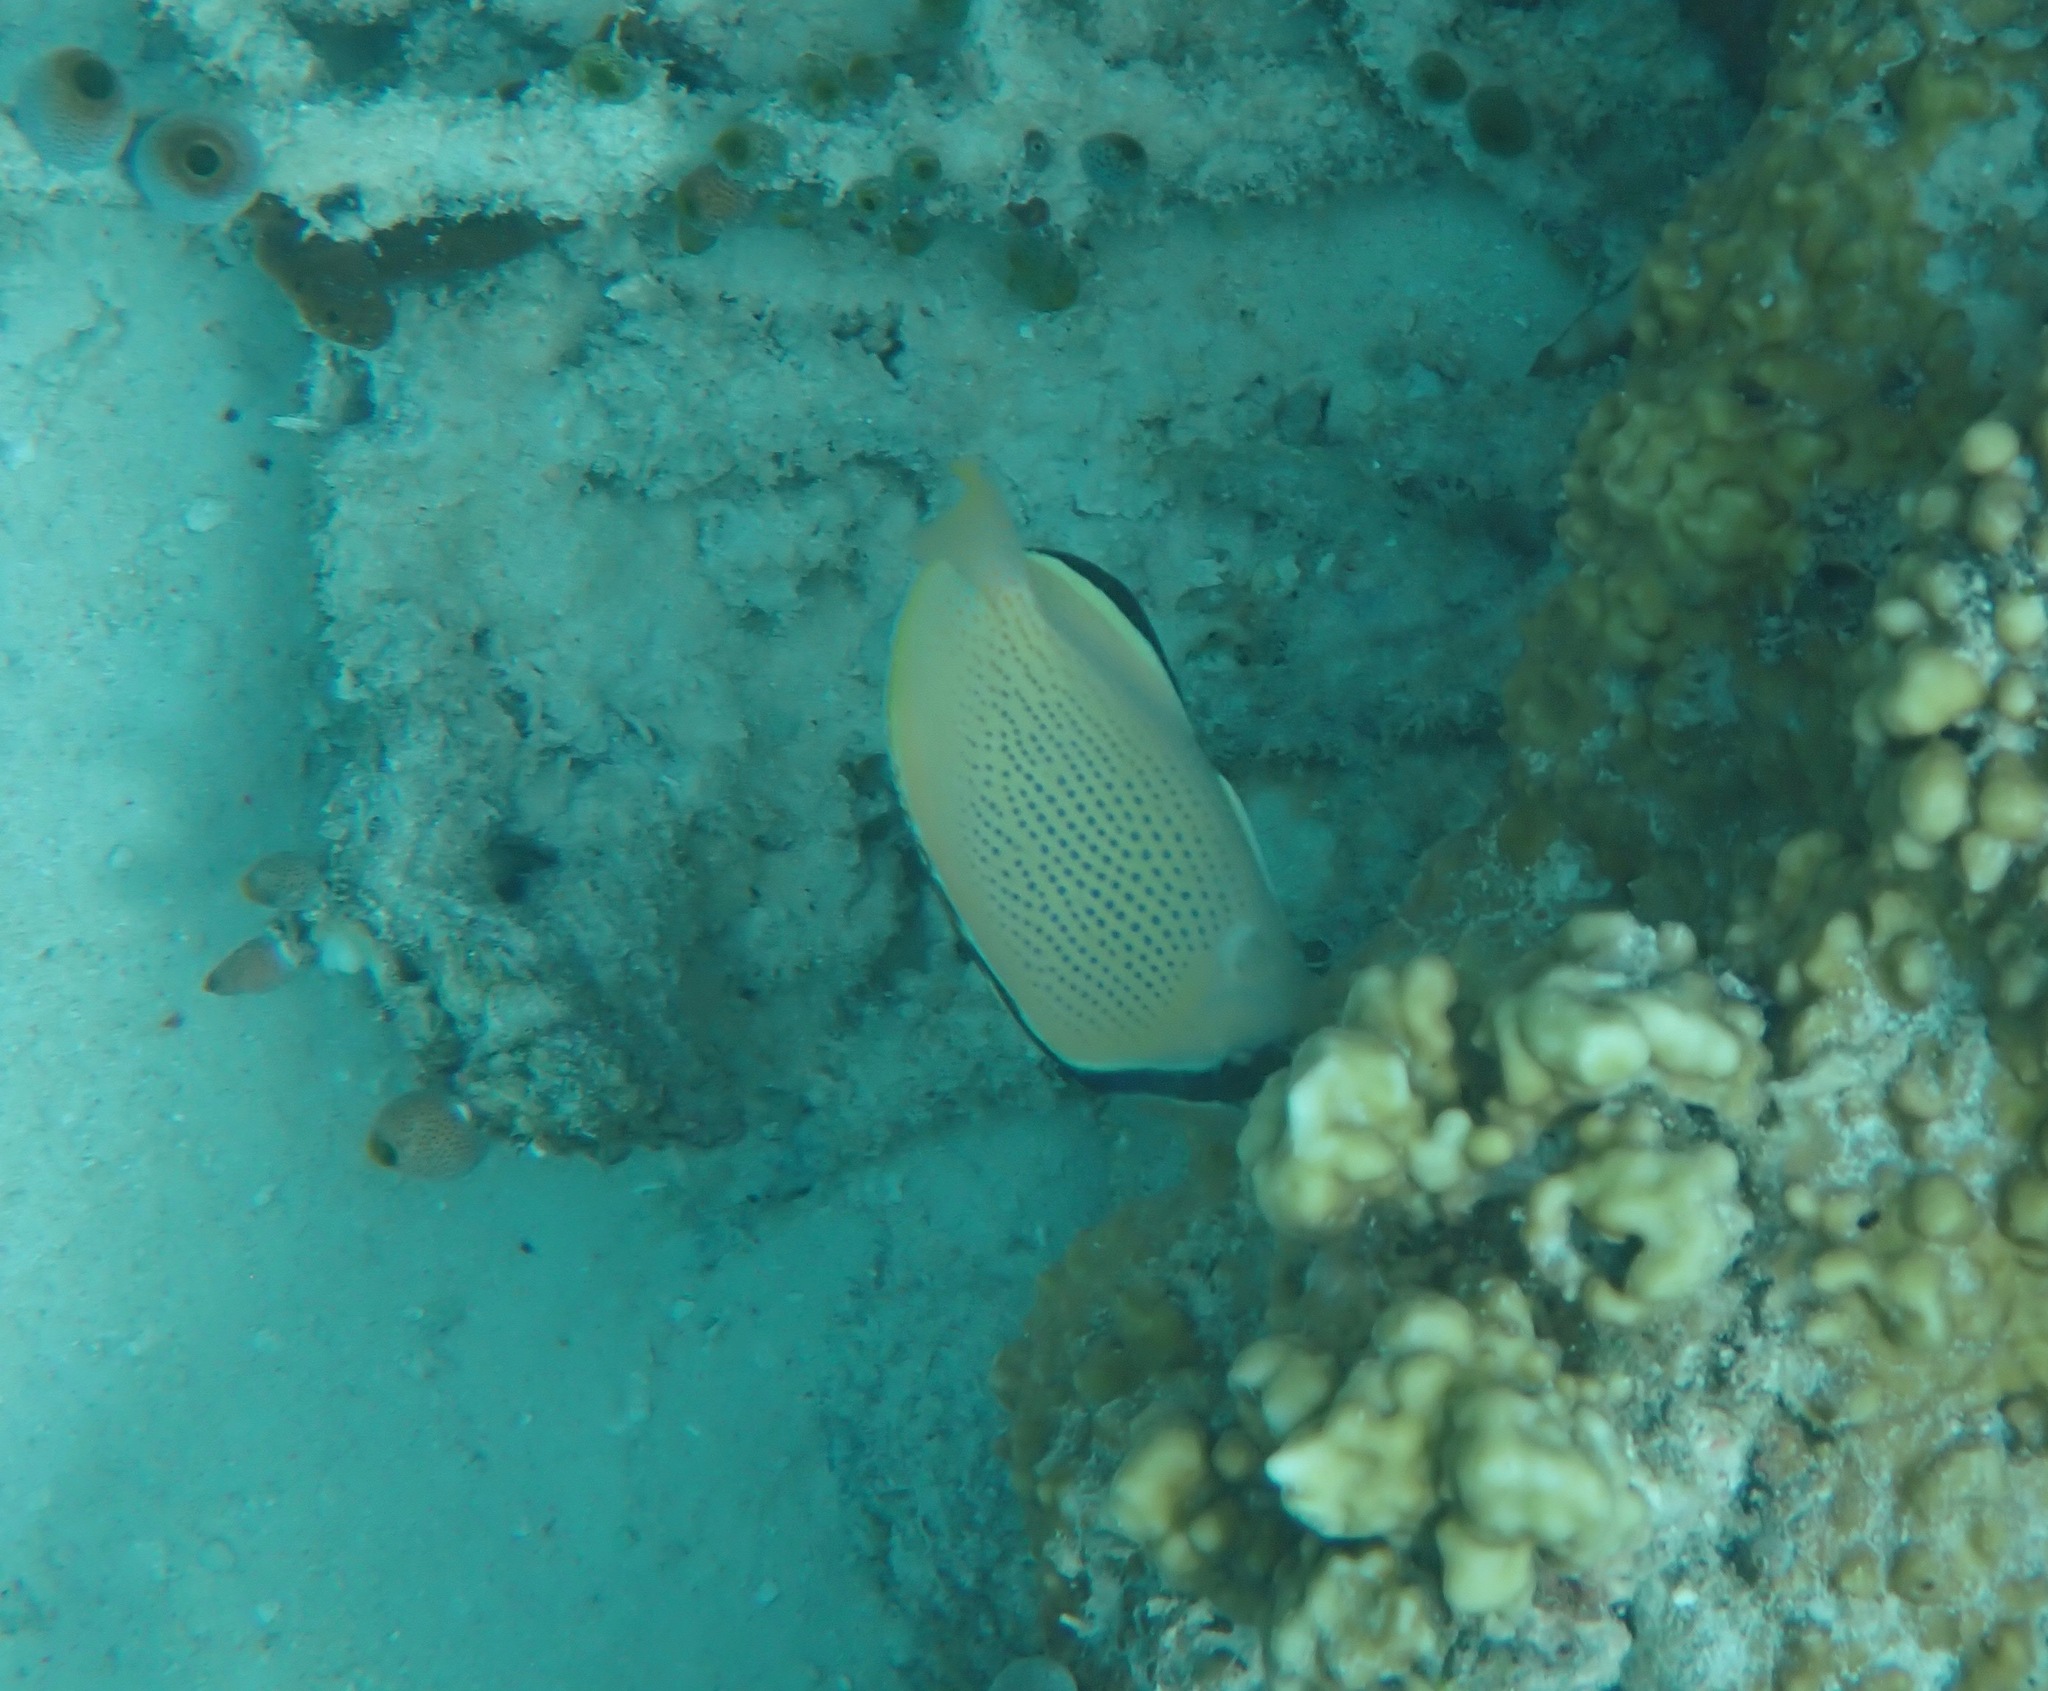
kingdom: Animalia
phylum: Chordata
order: Perciformes
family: Chaetodontidae
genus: Chaetodon
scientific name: Chaetodon citrinellus
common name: Speckled butterflyfish
